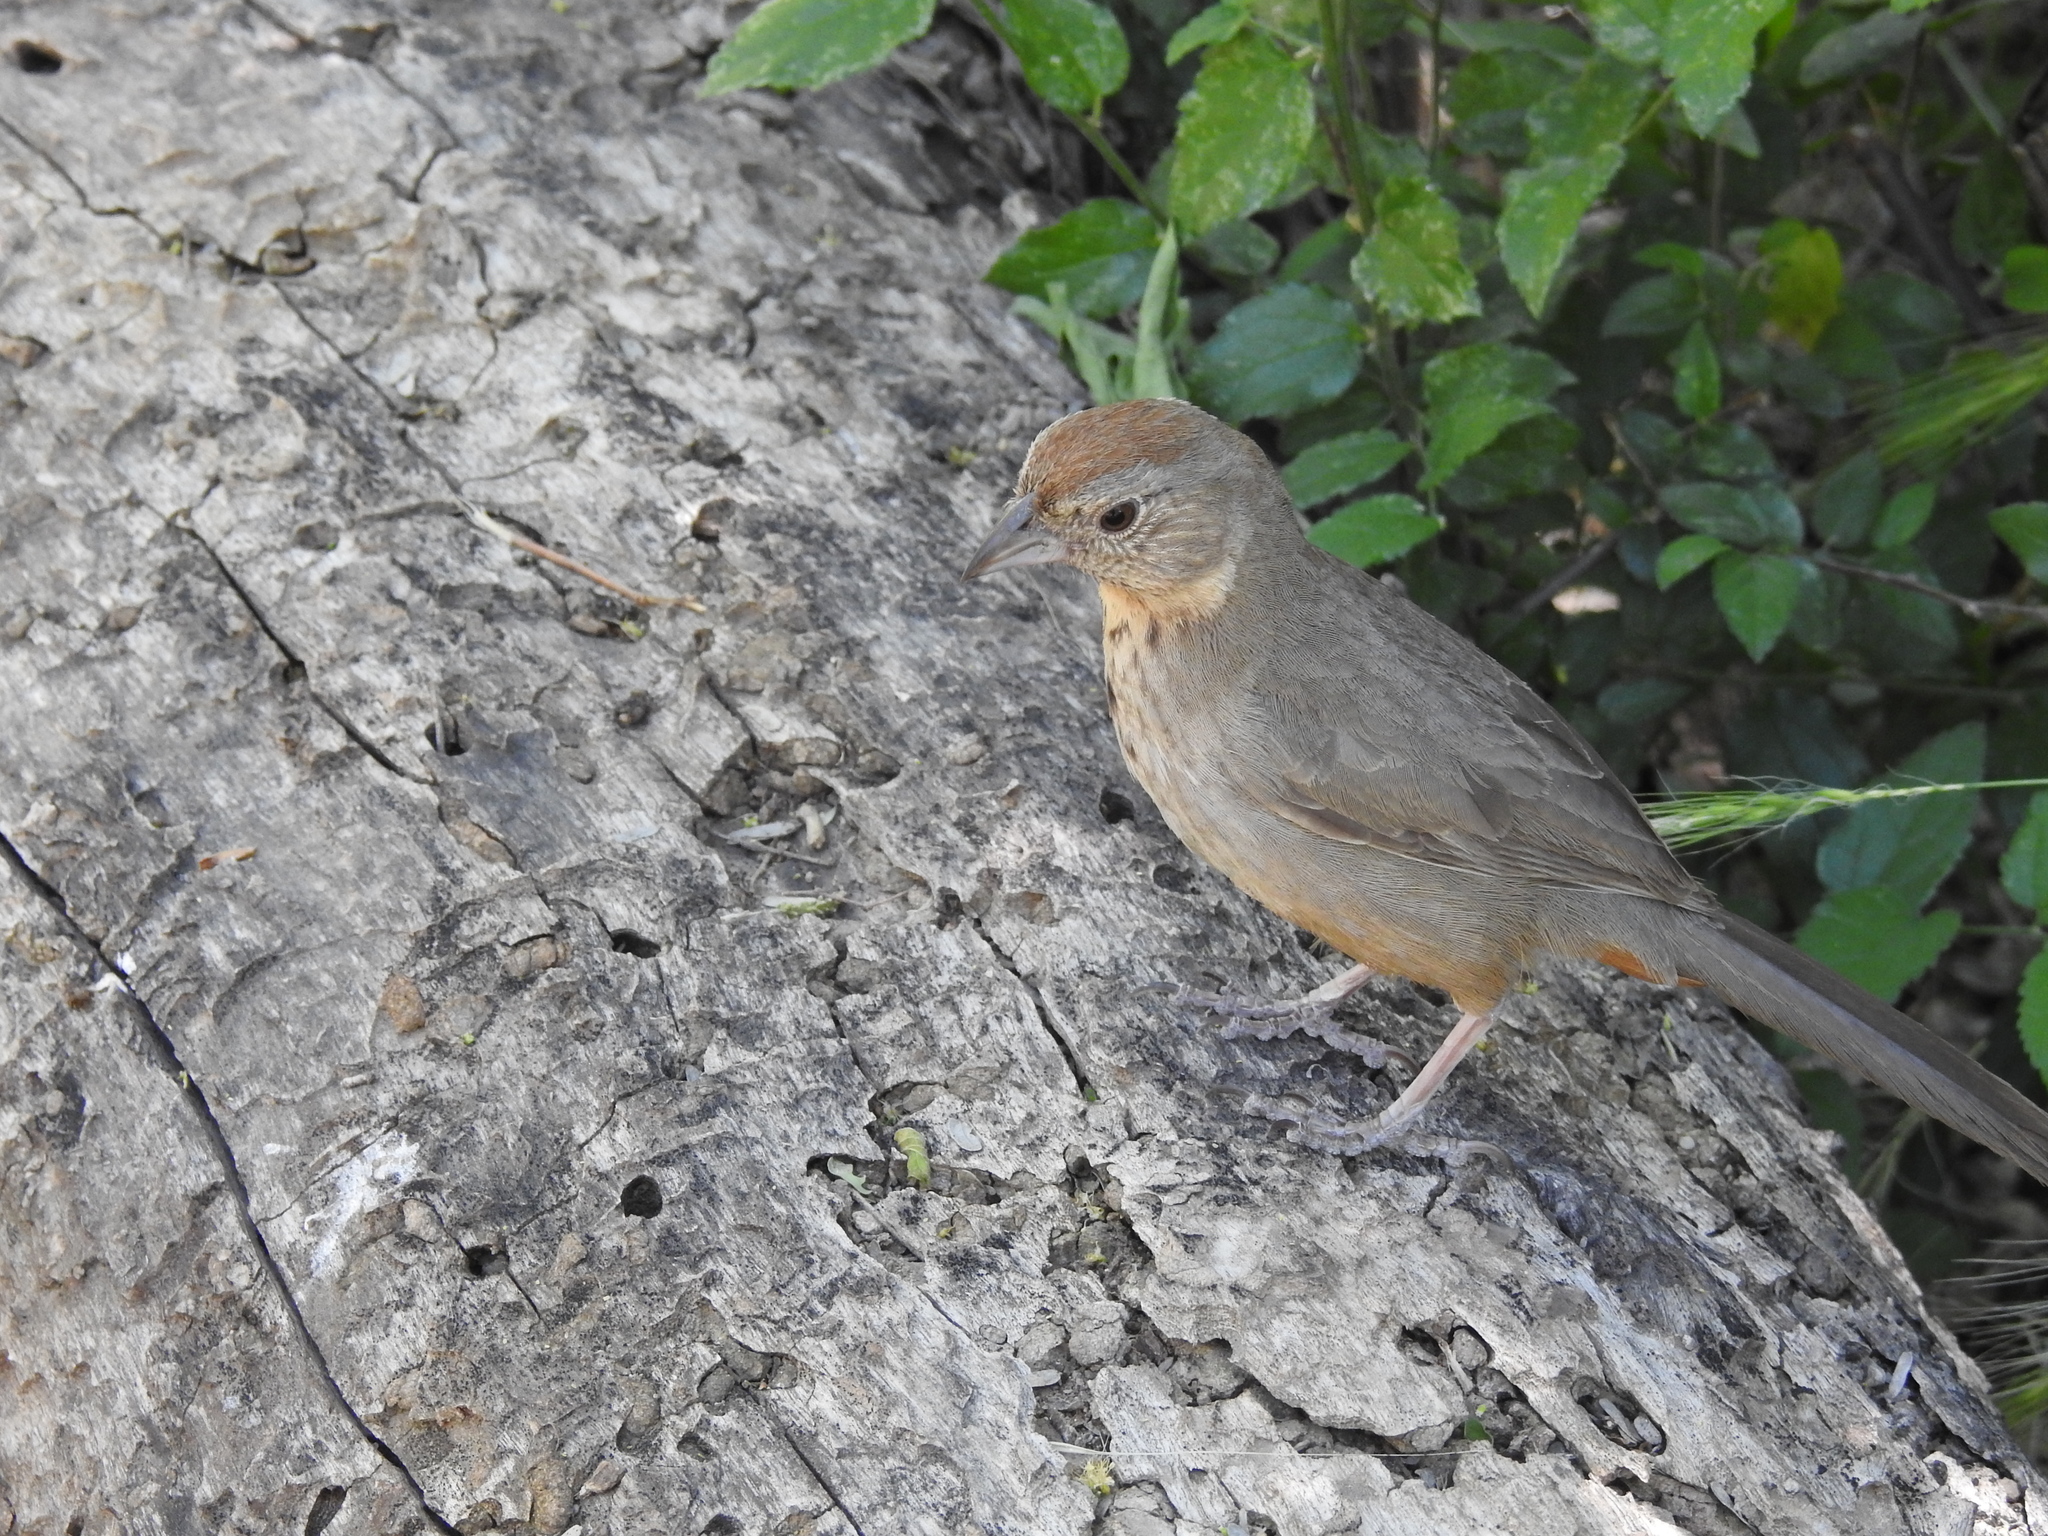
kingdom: Animalia
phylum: Chordata
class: Aves
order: Passeriformes
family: Passerellidae
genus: Melozone
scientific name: Melozone fusca
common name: Canyon towhee
